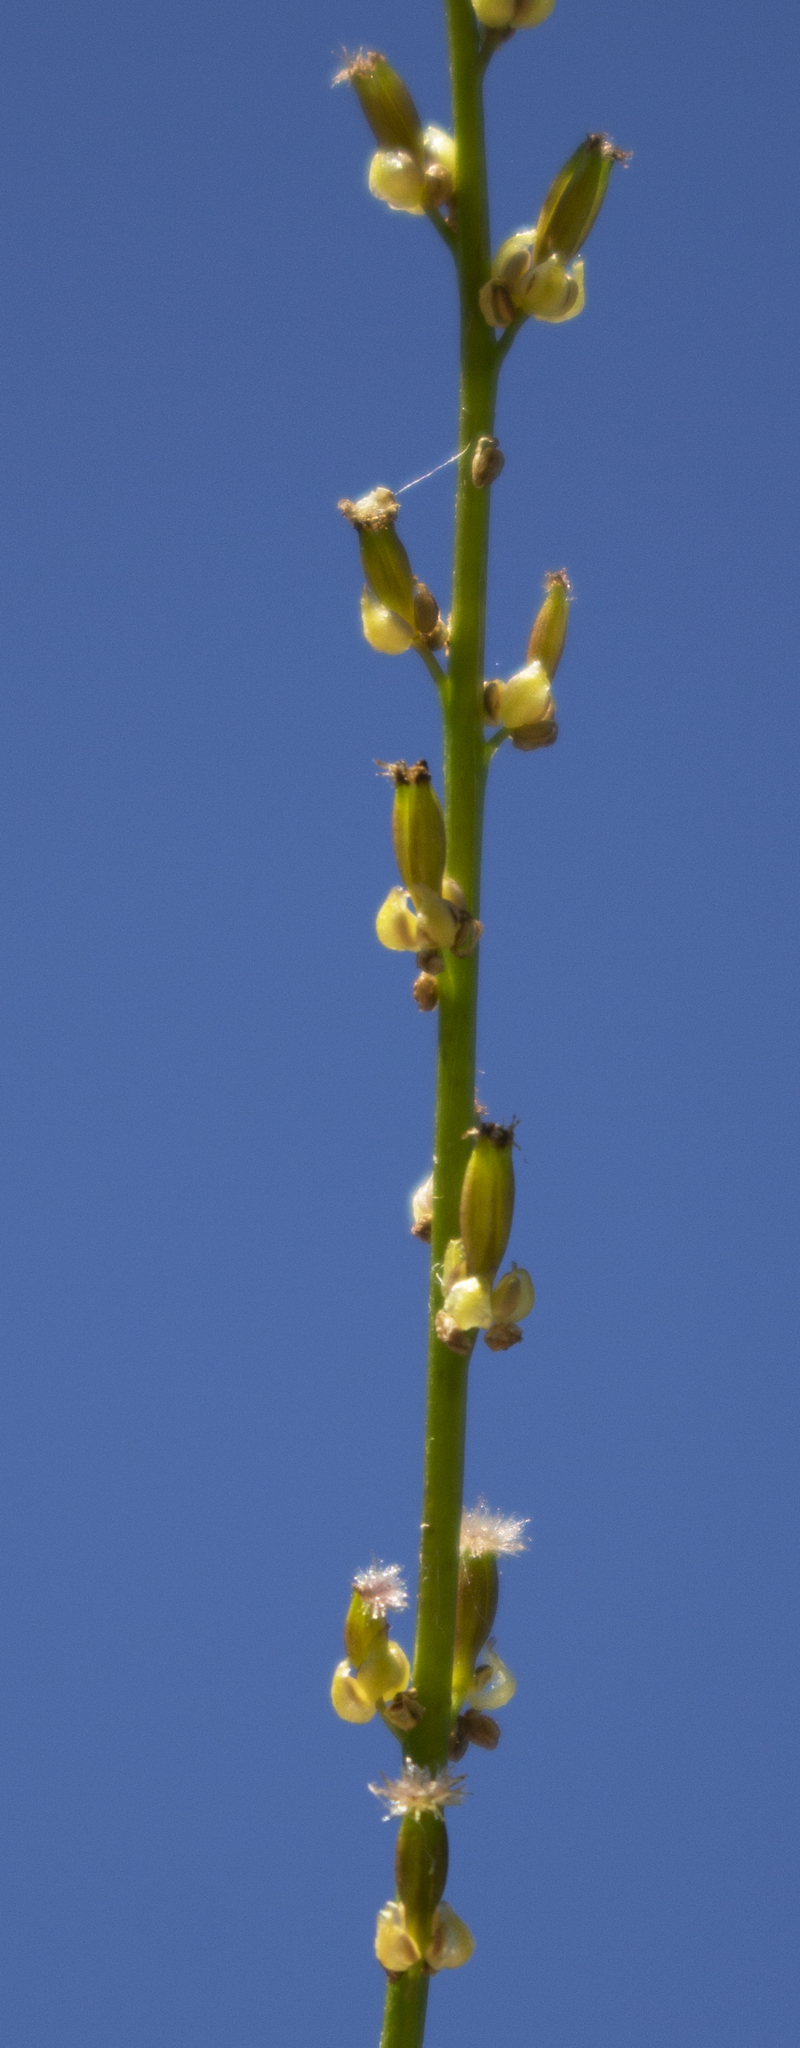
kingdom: Plantae
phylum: Tracheophyta
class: Liliopsida
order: Alismatales
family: Juncaginaceae
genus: Triglochin
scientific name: Triglochin palustris
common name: Marsh arrowgrass
